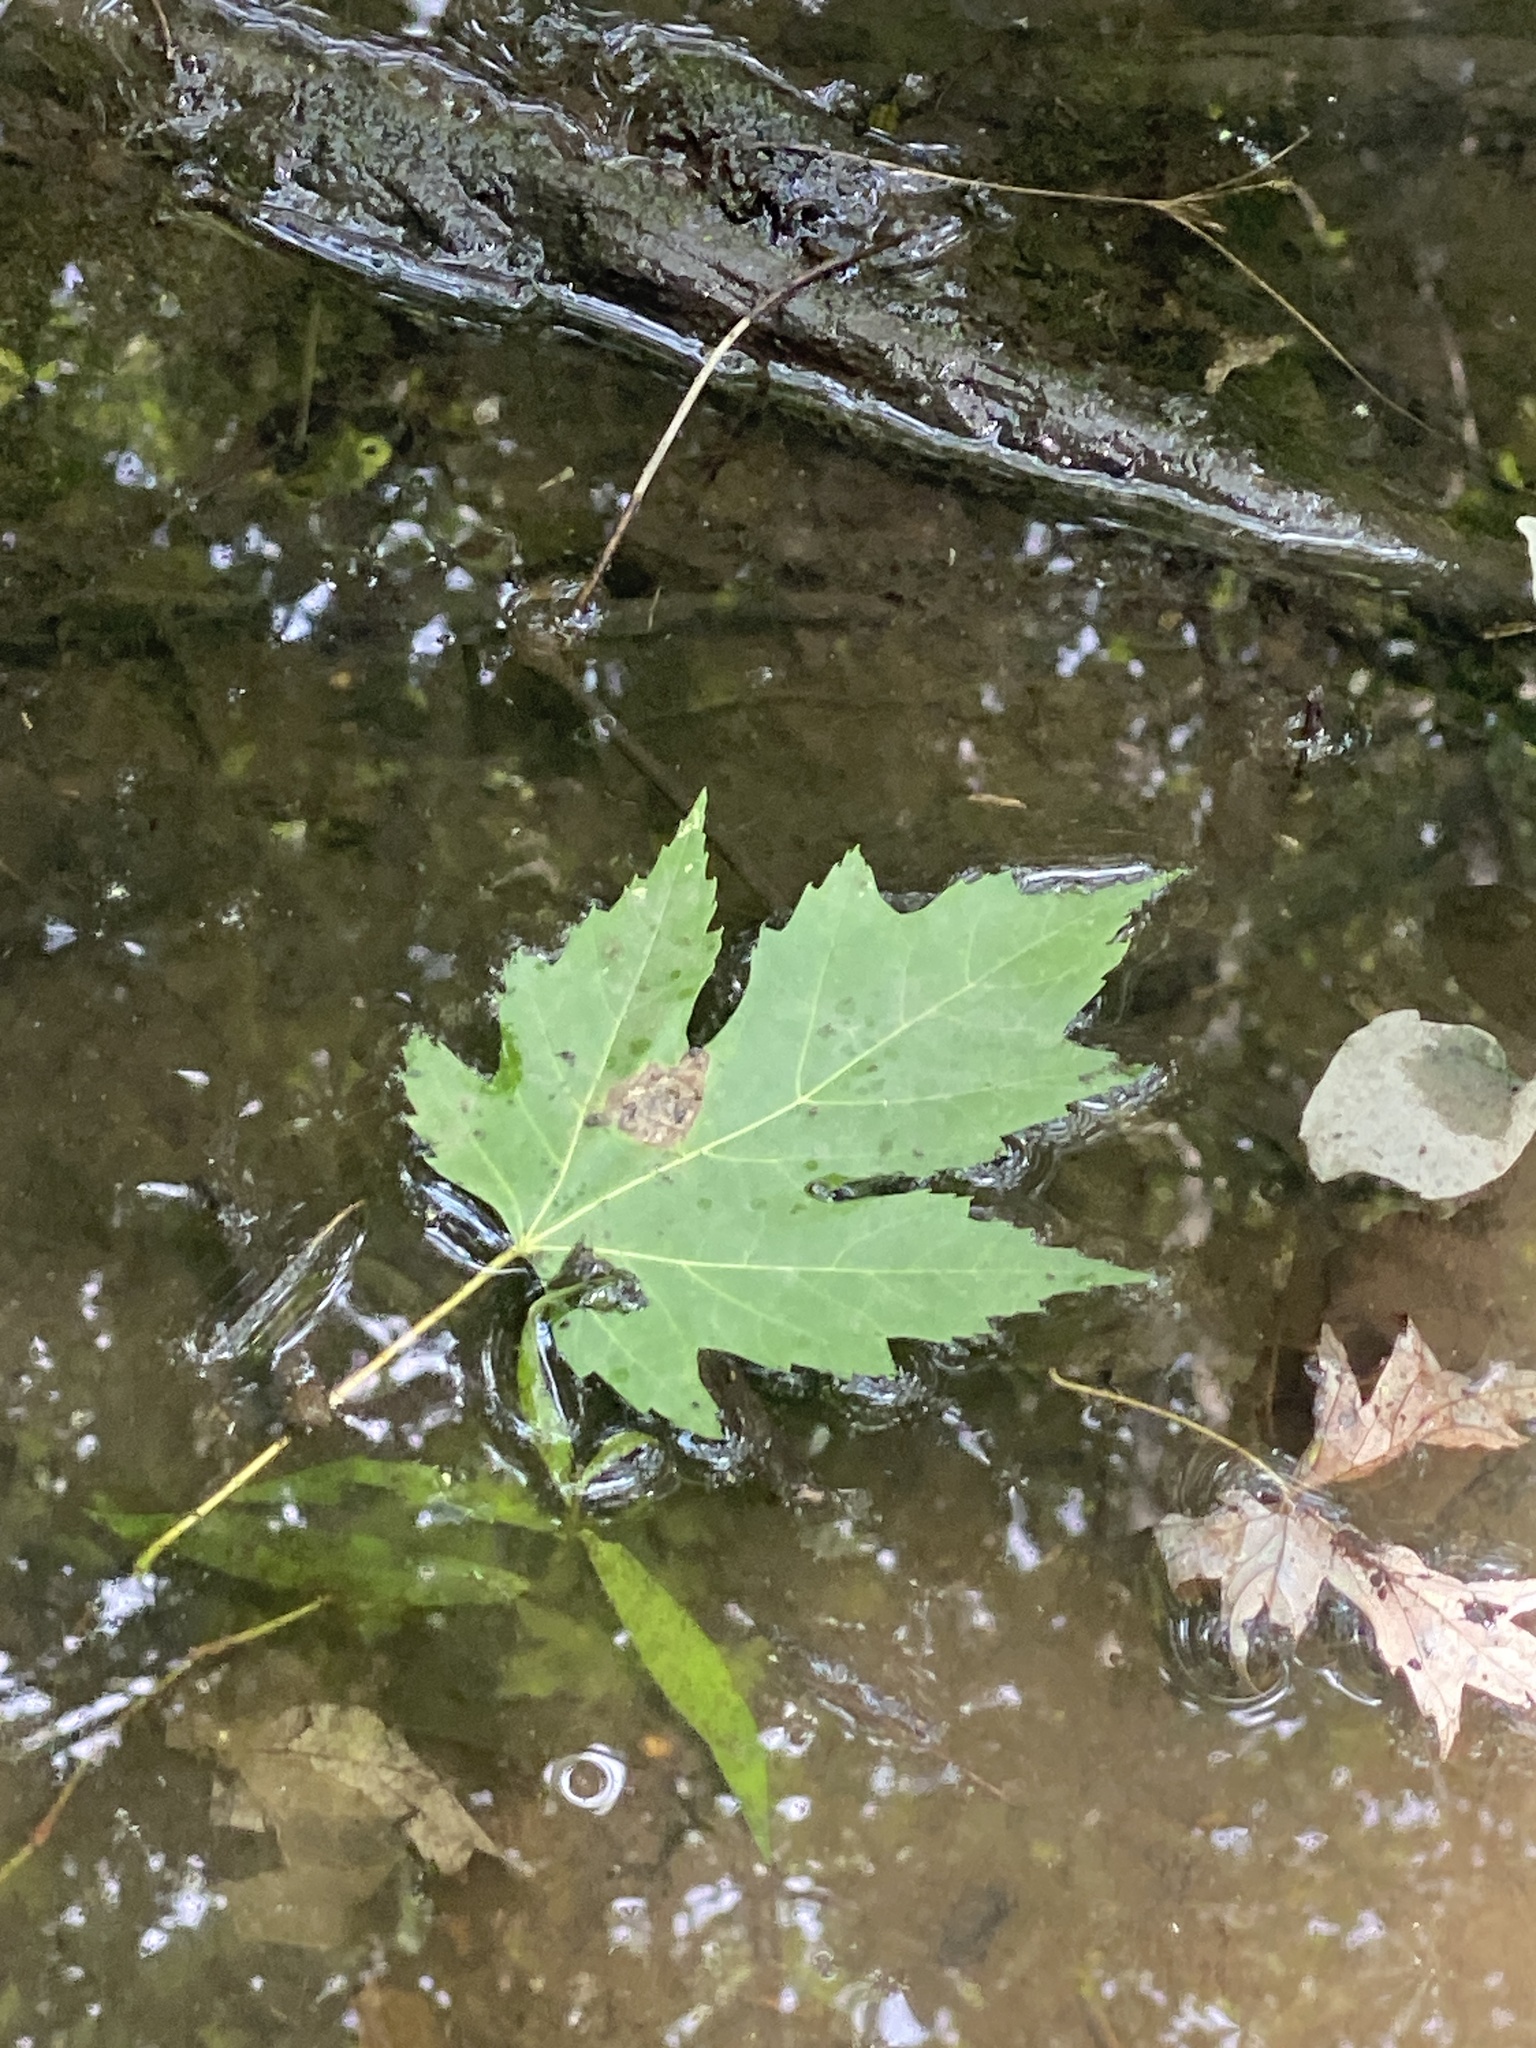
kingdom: Plantae
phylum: Tracheophyta
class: Magnoliopsida
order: Sapindales
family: Sapindaceae
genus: Acer
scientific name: Acer saccharinum
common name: Silver maple
